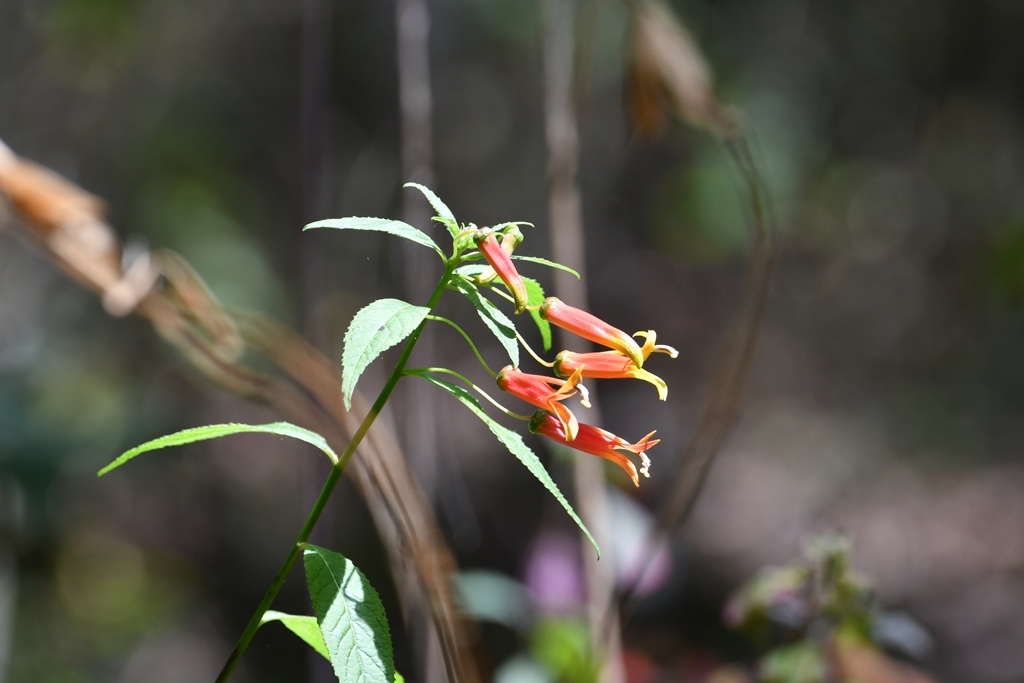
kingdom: Plantae
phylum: Tracheophyta
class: Magnoliopsida
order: Asterales
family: Campanulaceae
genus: Lobelia
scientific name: Lobelia laxiflora
